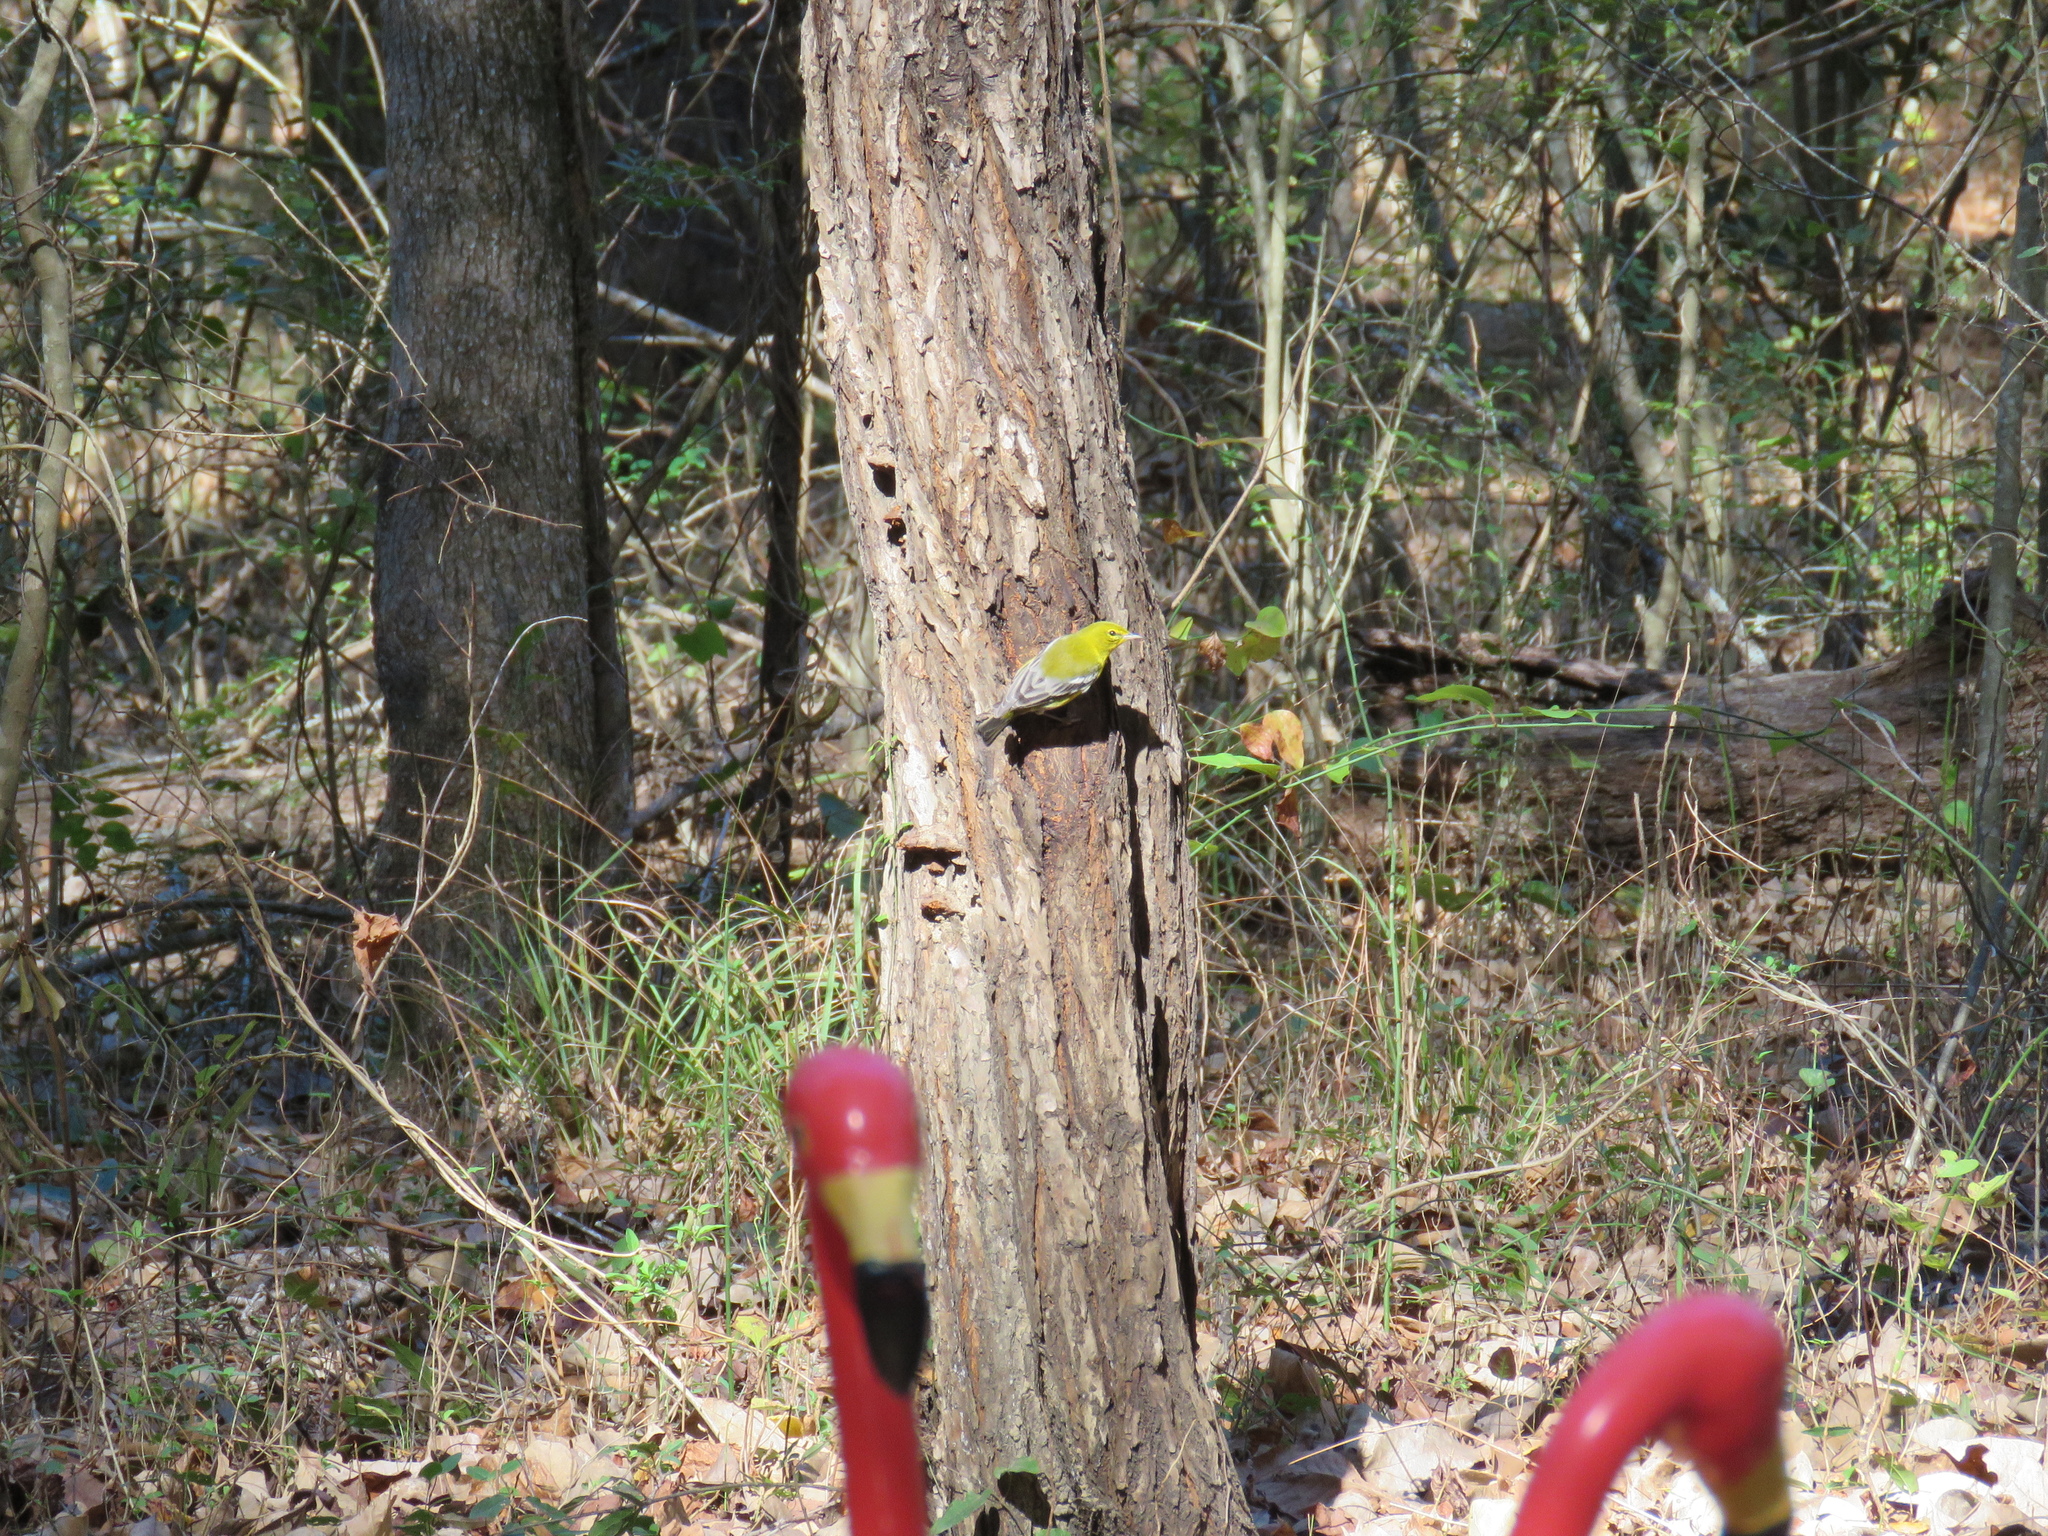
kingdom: Animalia
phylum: Chordata
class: Aves
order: Passeriformes
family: Parulidae
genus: Setophaga
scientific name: Setophaga pinus
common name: Pine warbler
